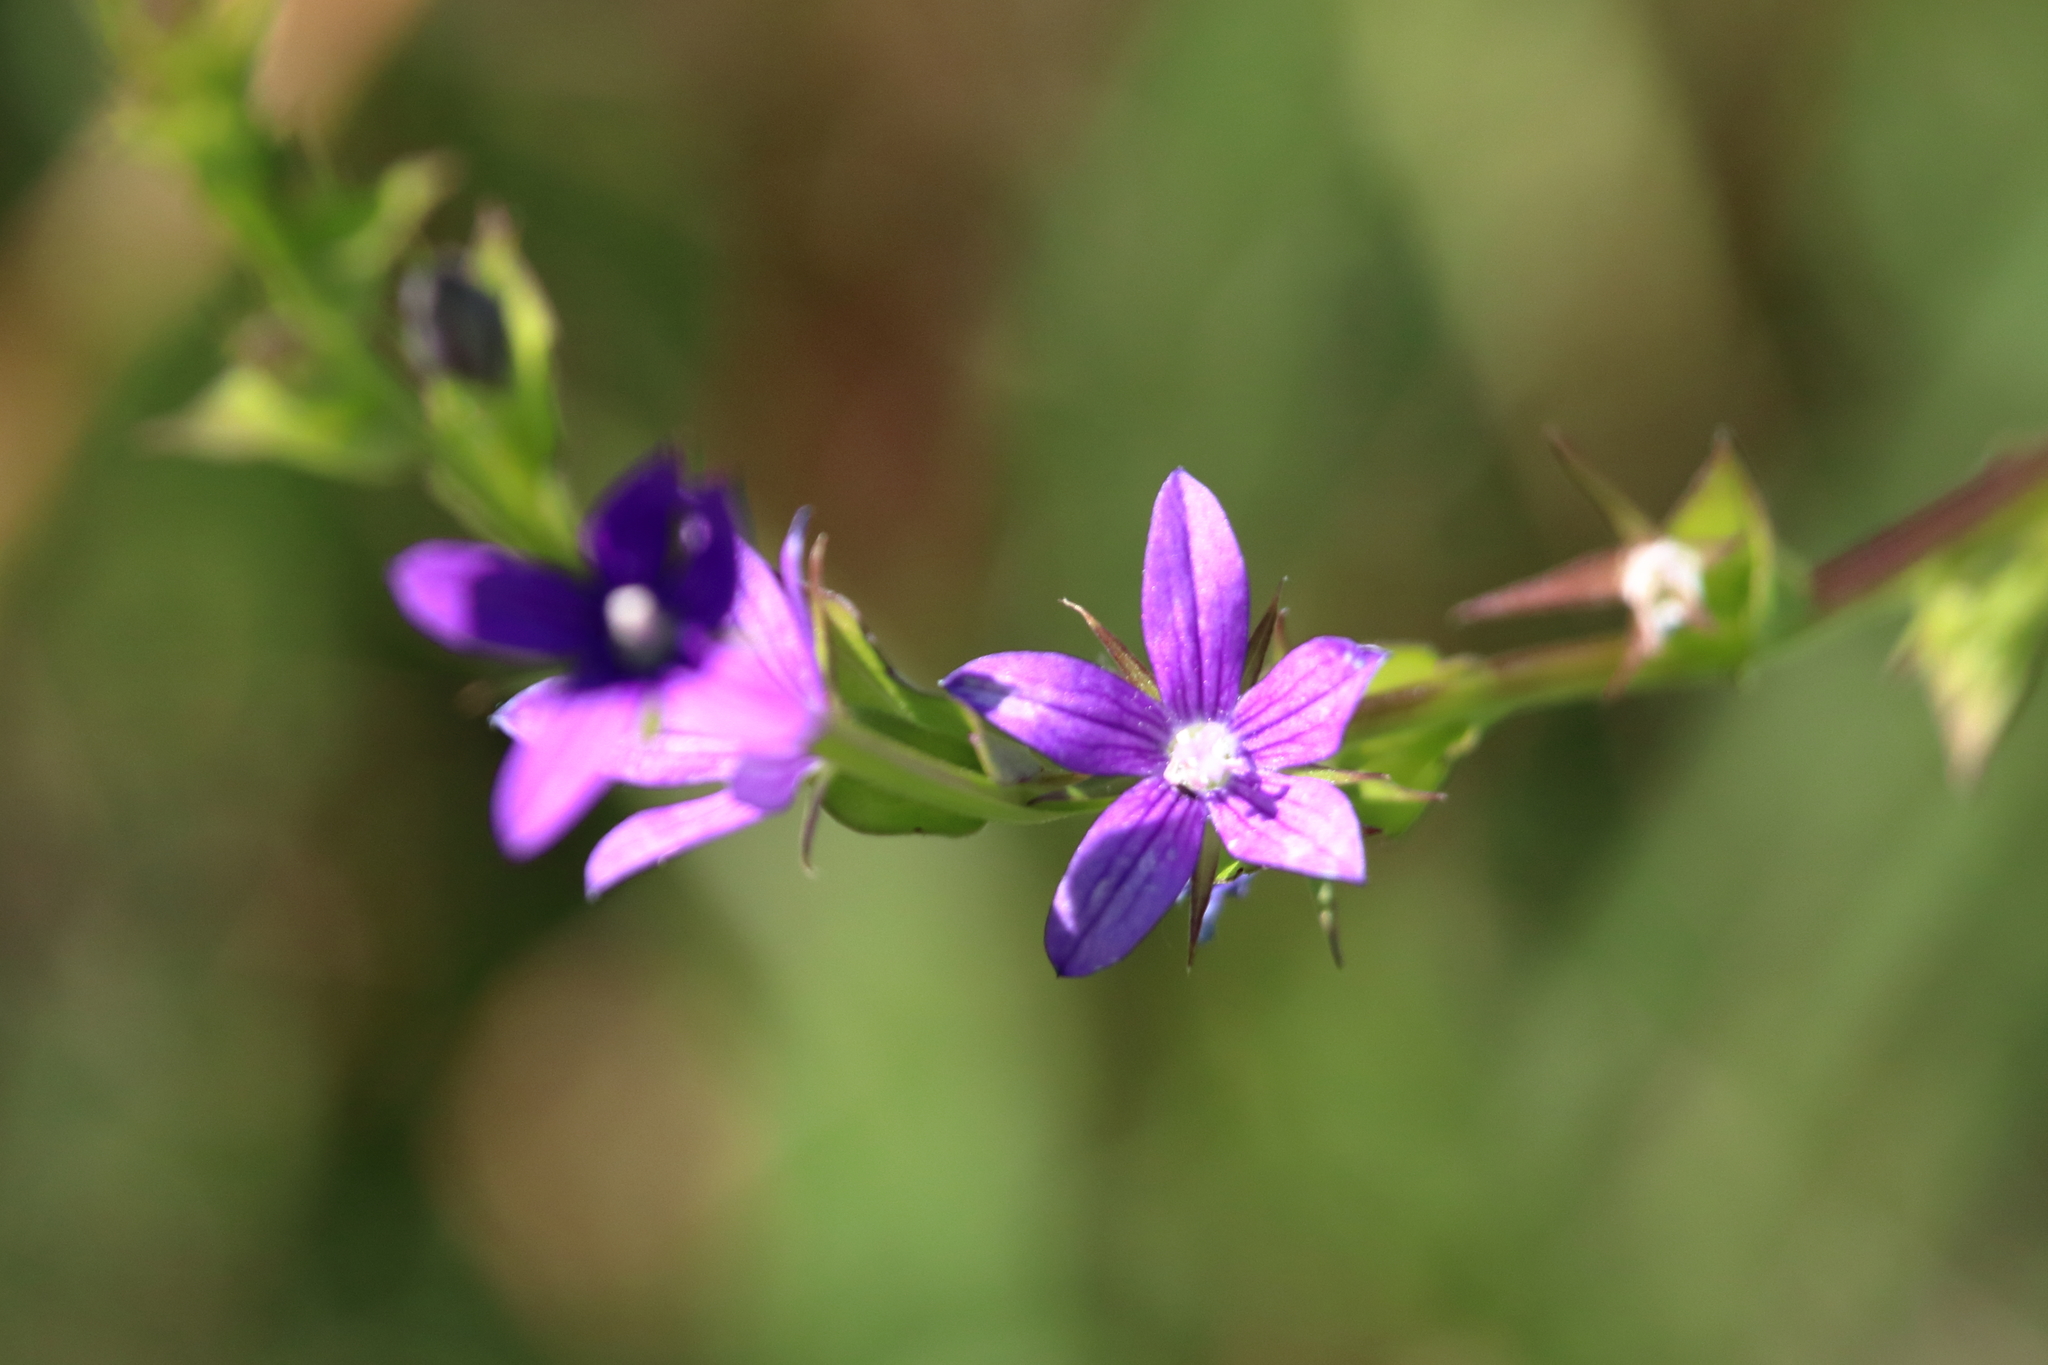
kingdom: Plantae
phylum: Tracheophyta
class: Magnoliopsida
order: Asterales
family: Campanulaceae
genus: Triodanis
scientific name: Triodanis perfoliata
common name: Clasping venus' looking-glass
